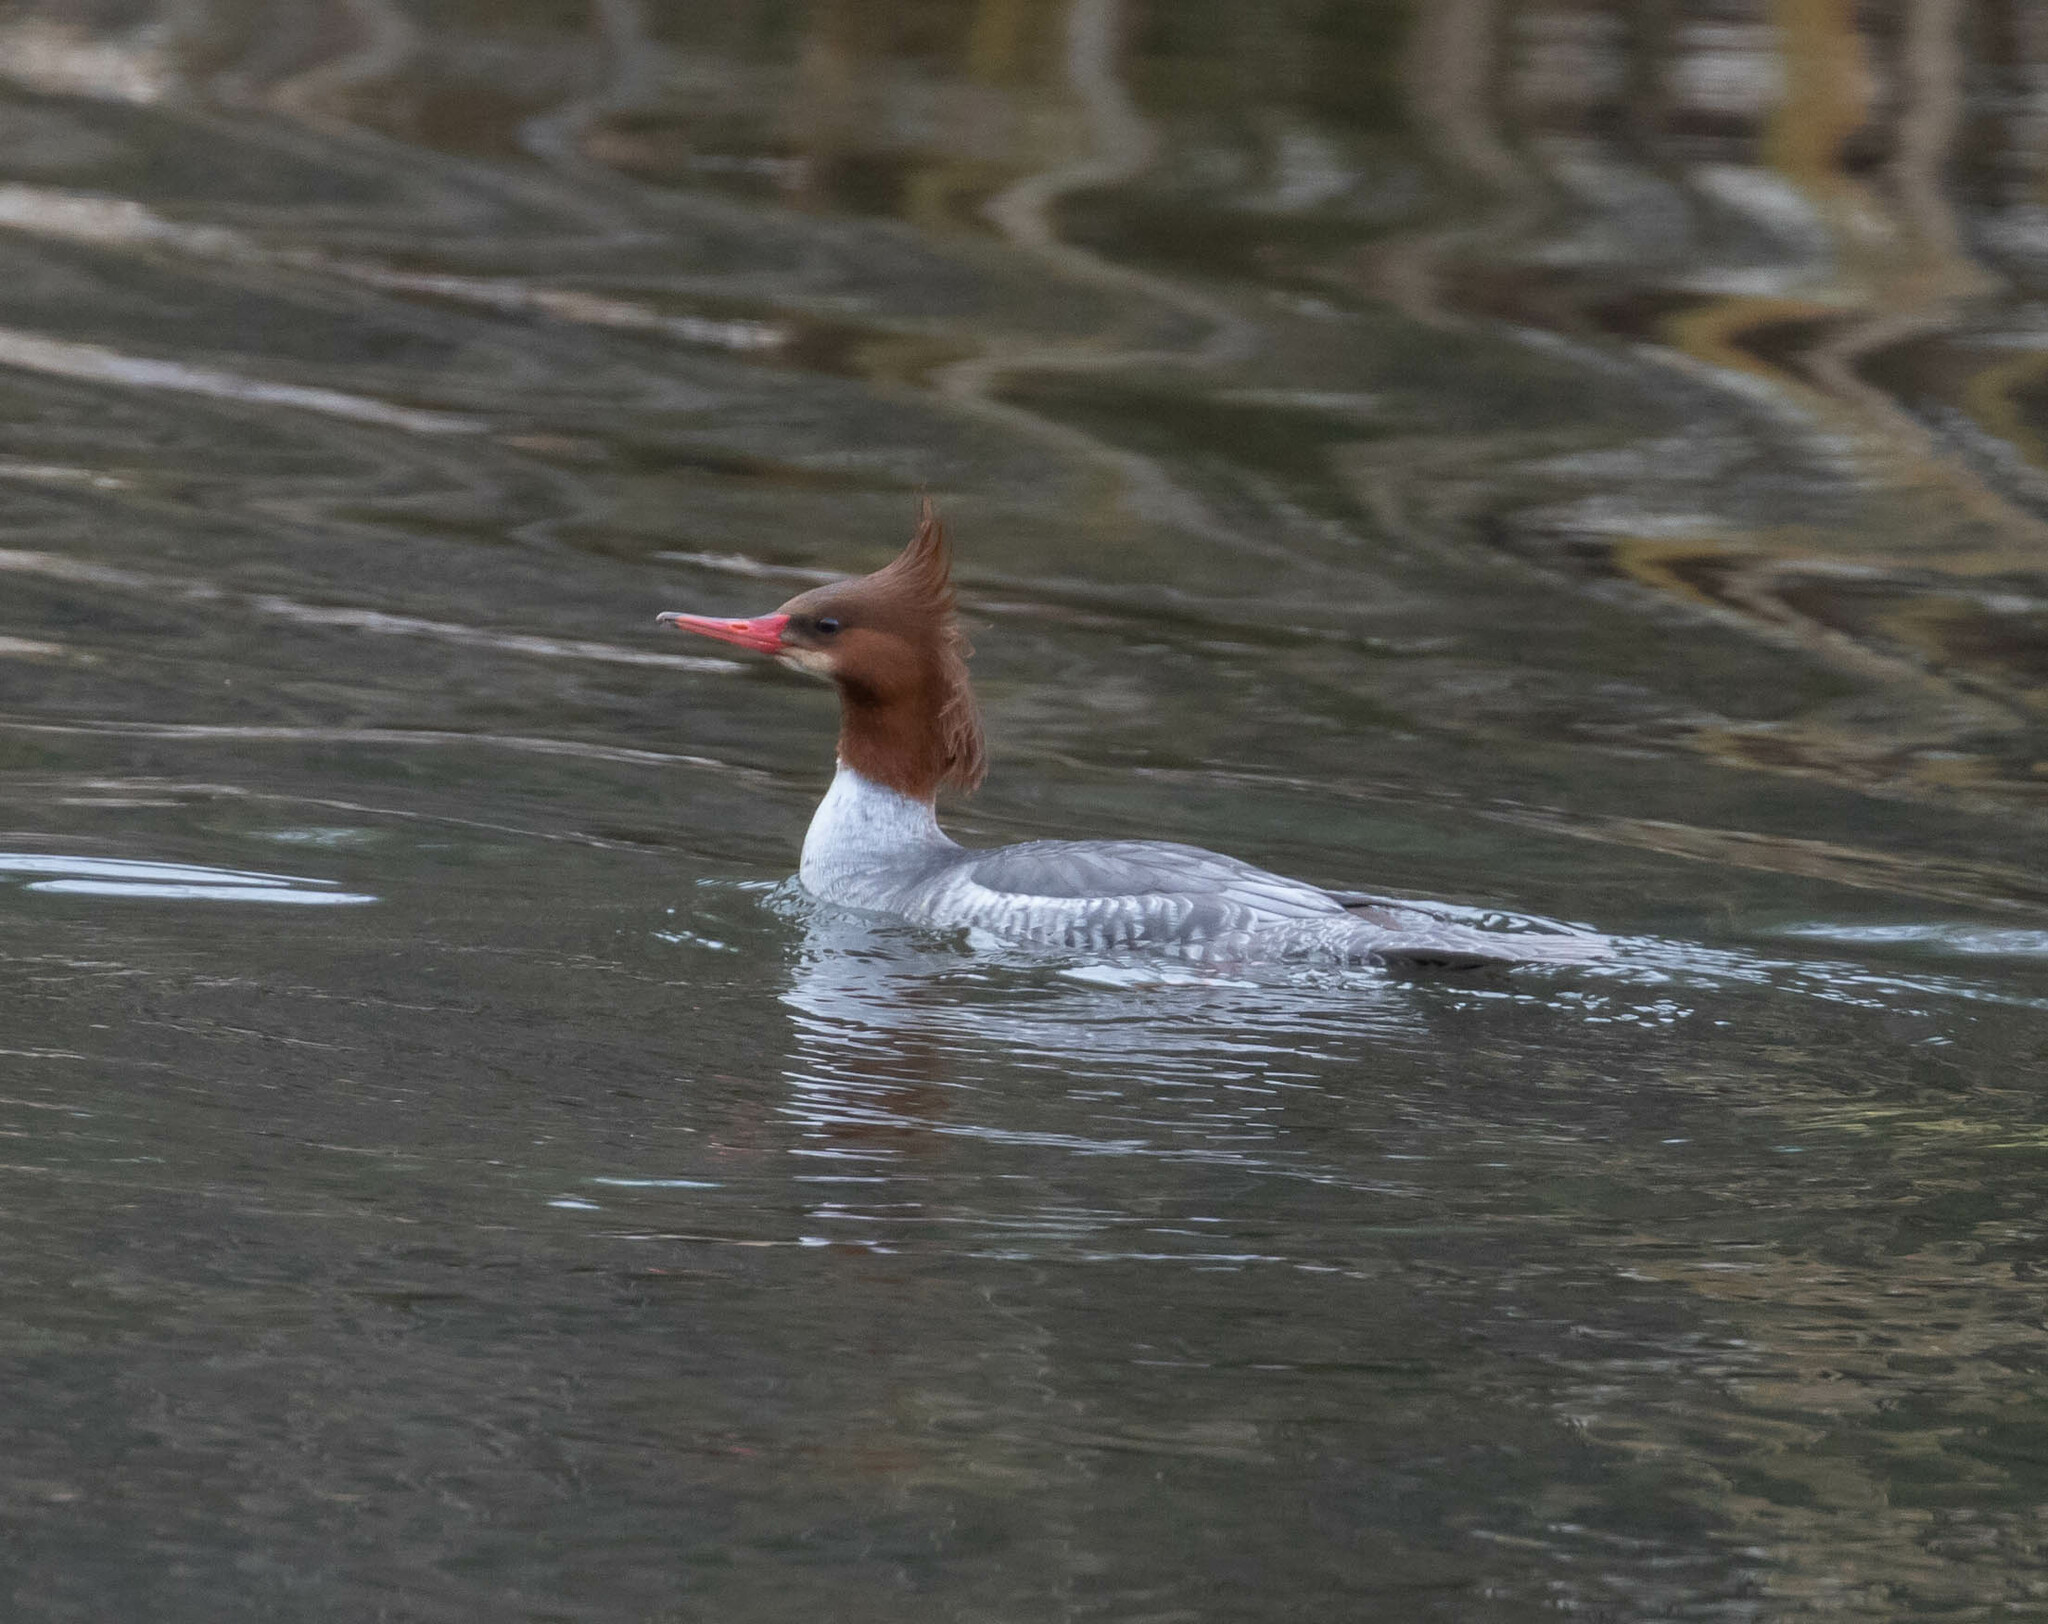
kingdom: Animalia
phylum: Chordata
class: Aves
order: Anseriformes
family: Anatidae
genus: Mergus
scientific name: Mergus merganser
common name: Common merganser
